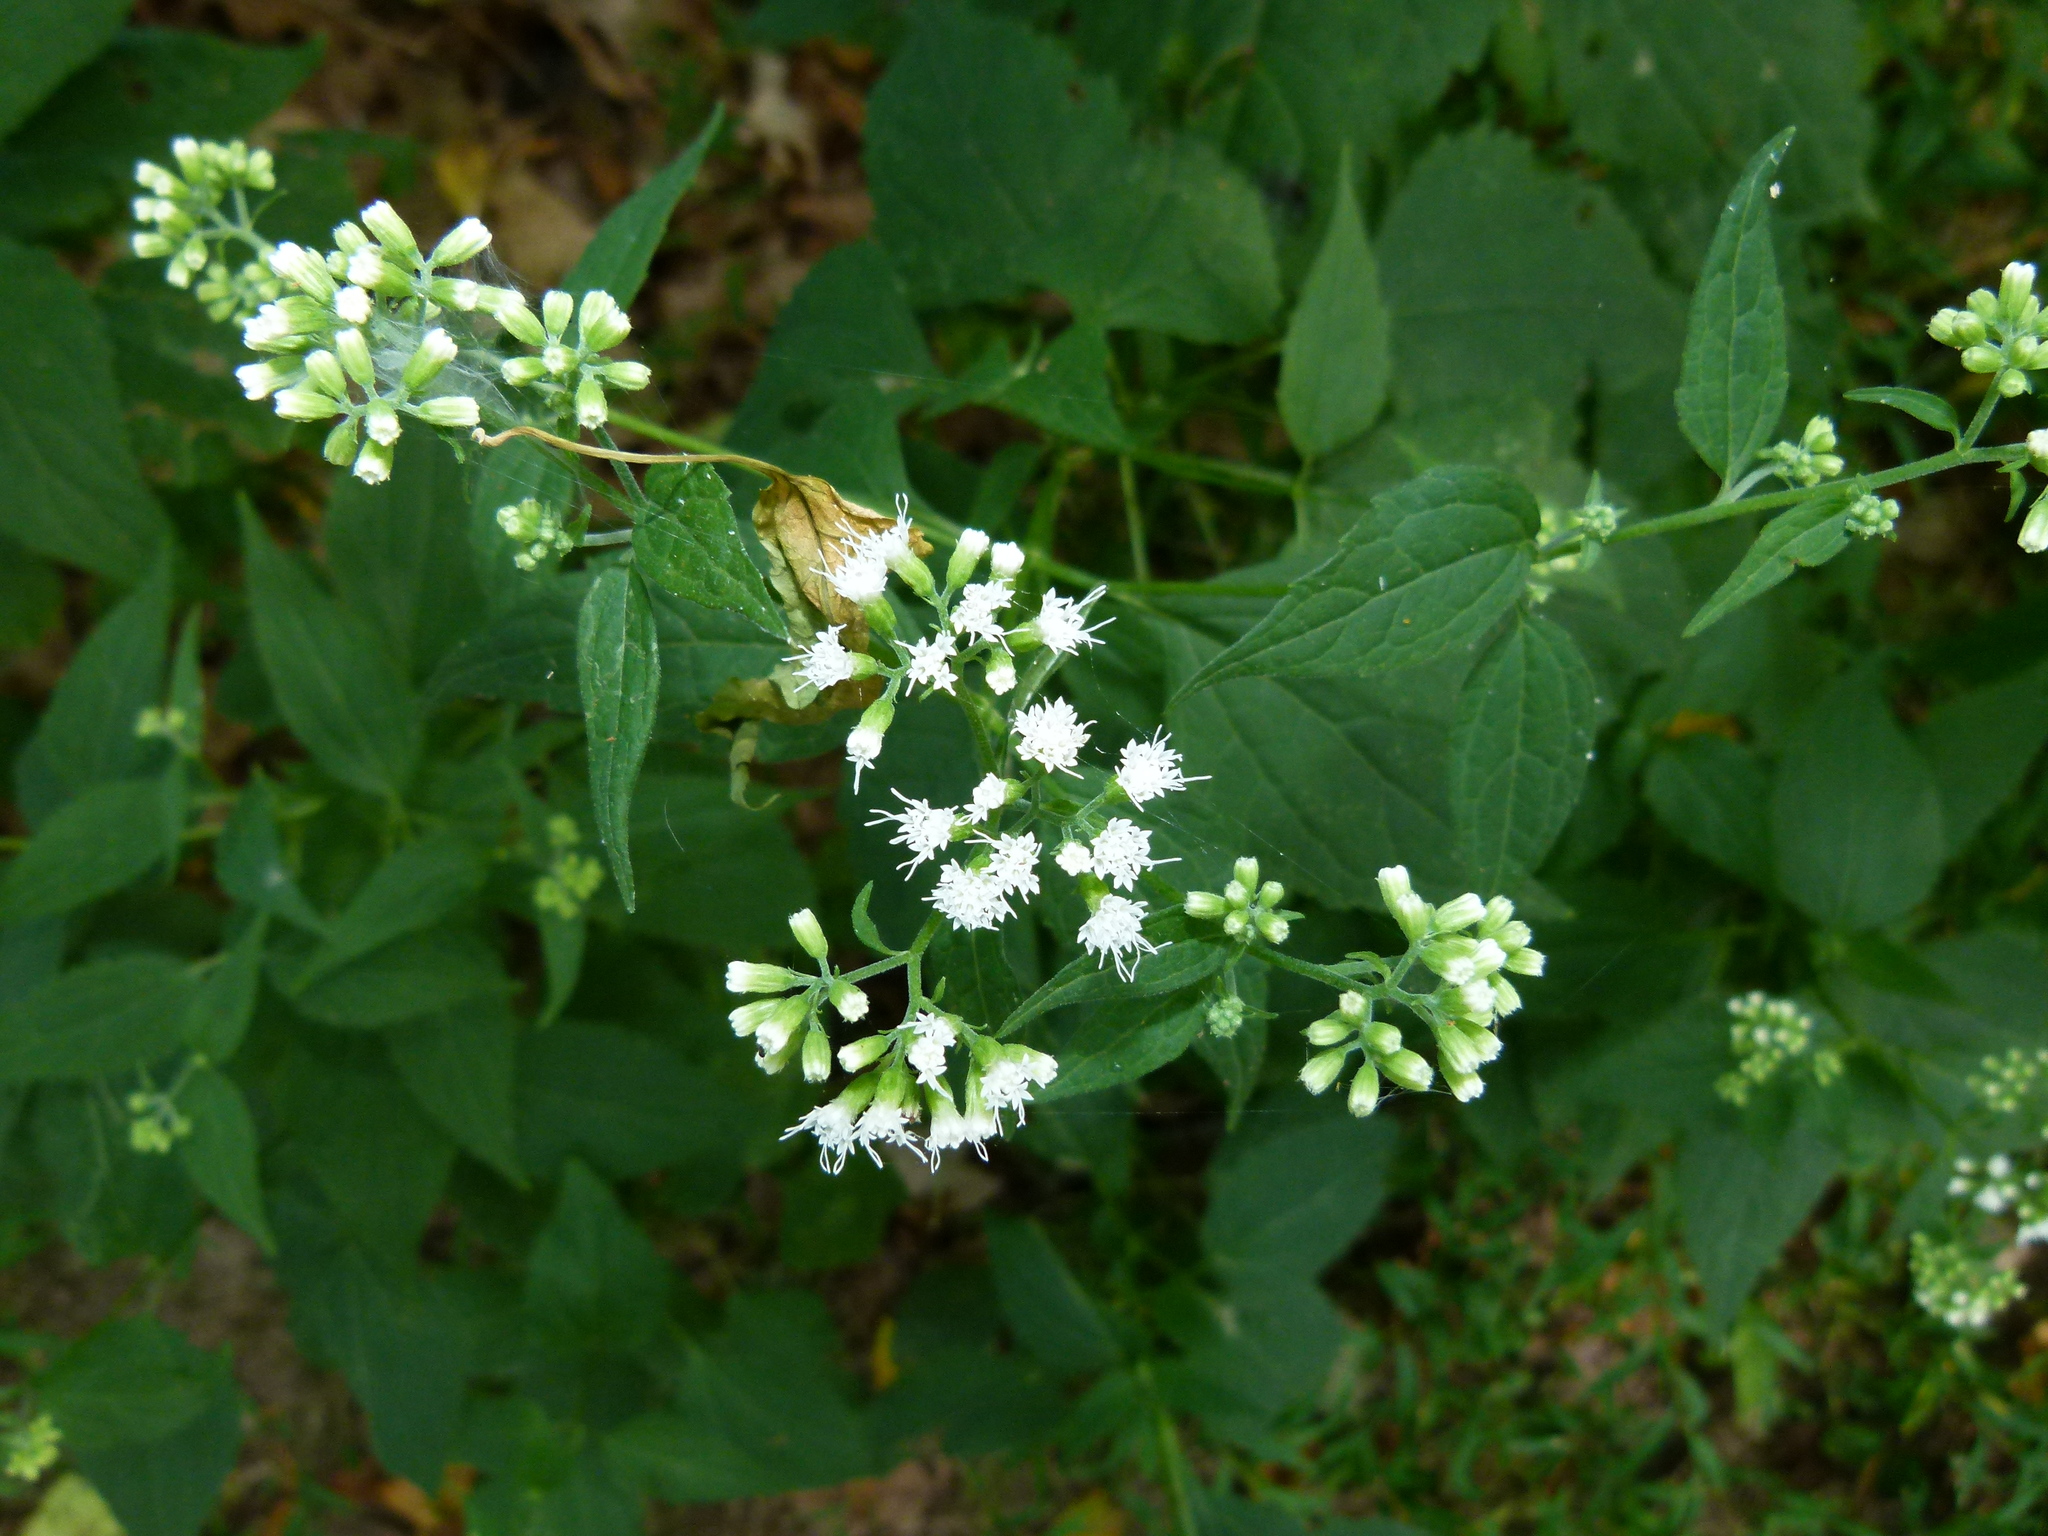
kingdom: Plantae
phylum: Tracheophyta
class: Magnoliopsida
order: Asterales
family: Asteraceae
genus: Ageratina
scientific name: Ageratina altissima
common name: White snakeroot
